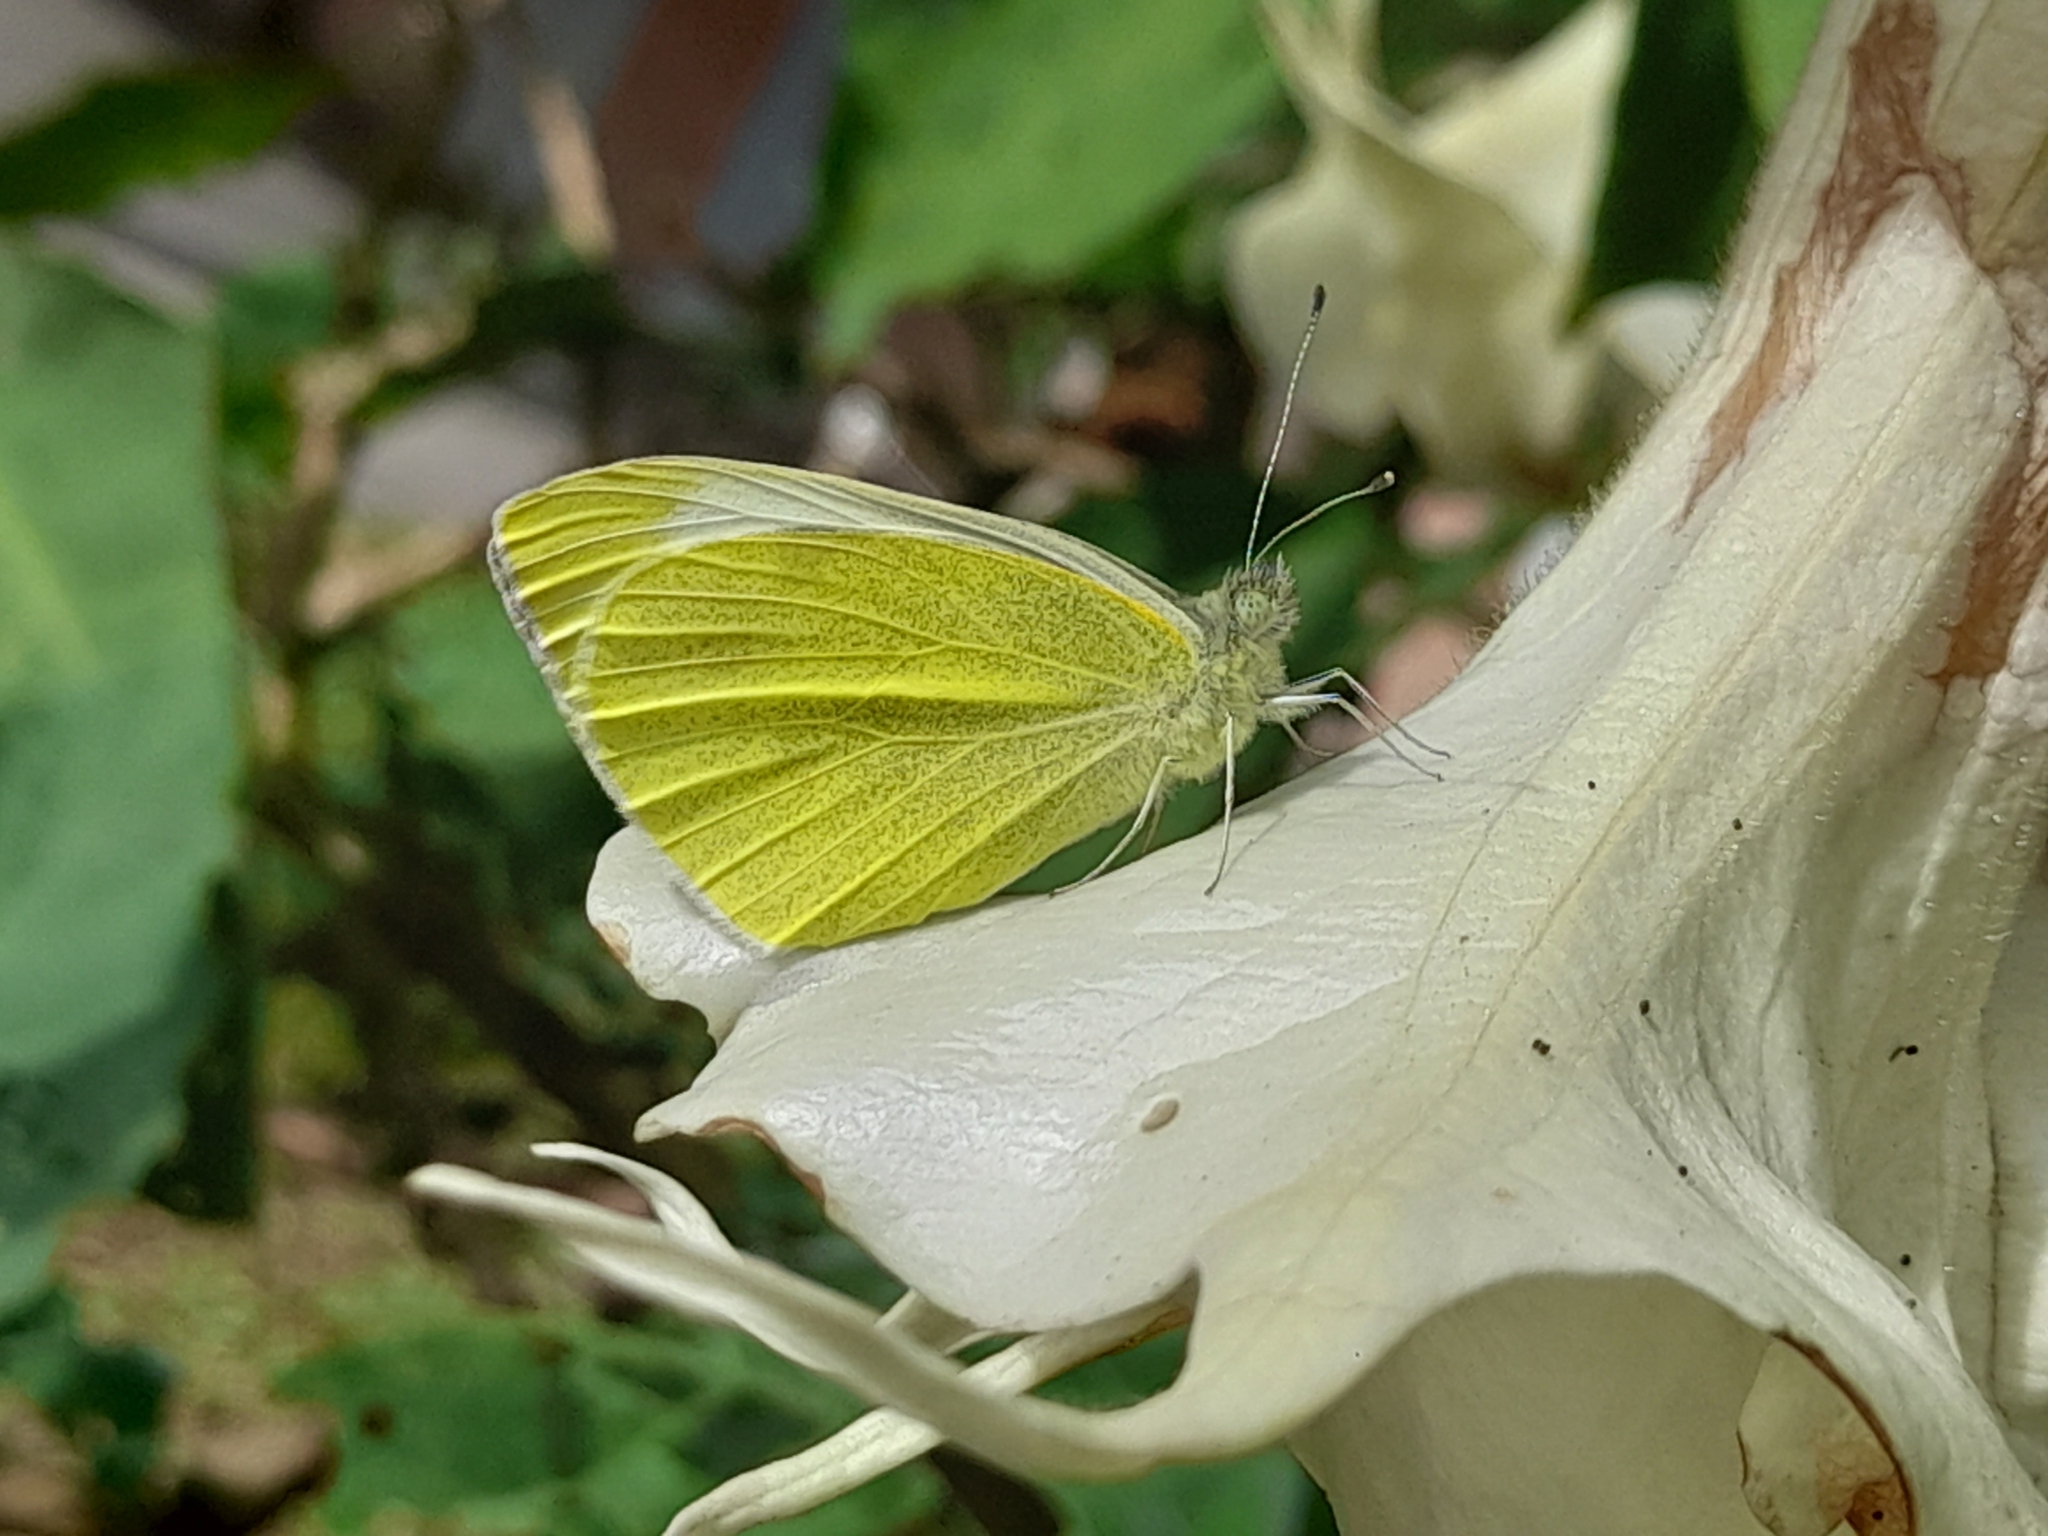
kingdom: Animalia
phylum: Arthropoda
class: Insecta
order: Lepidoptera
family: Pieridae
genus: Pieris
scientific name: Pieris rapae
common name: Small white
